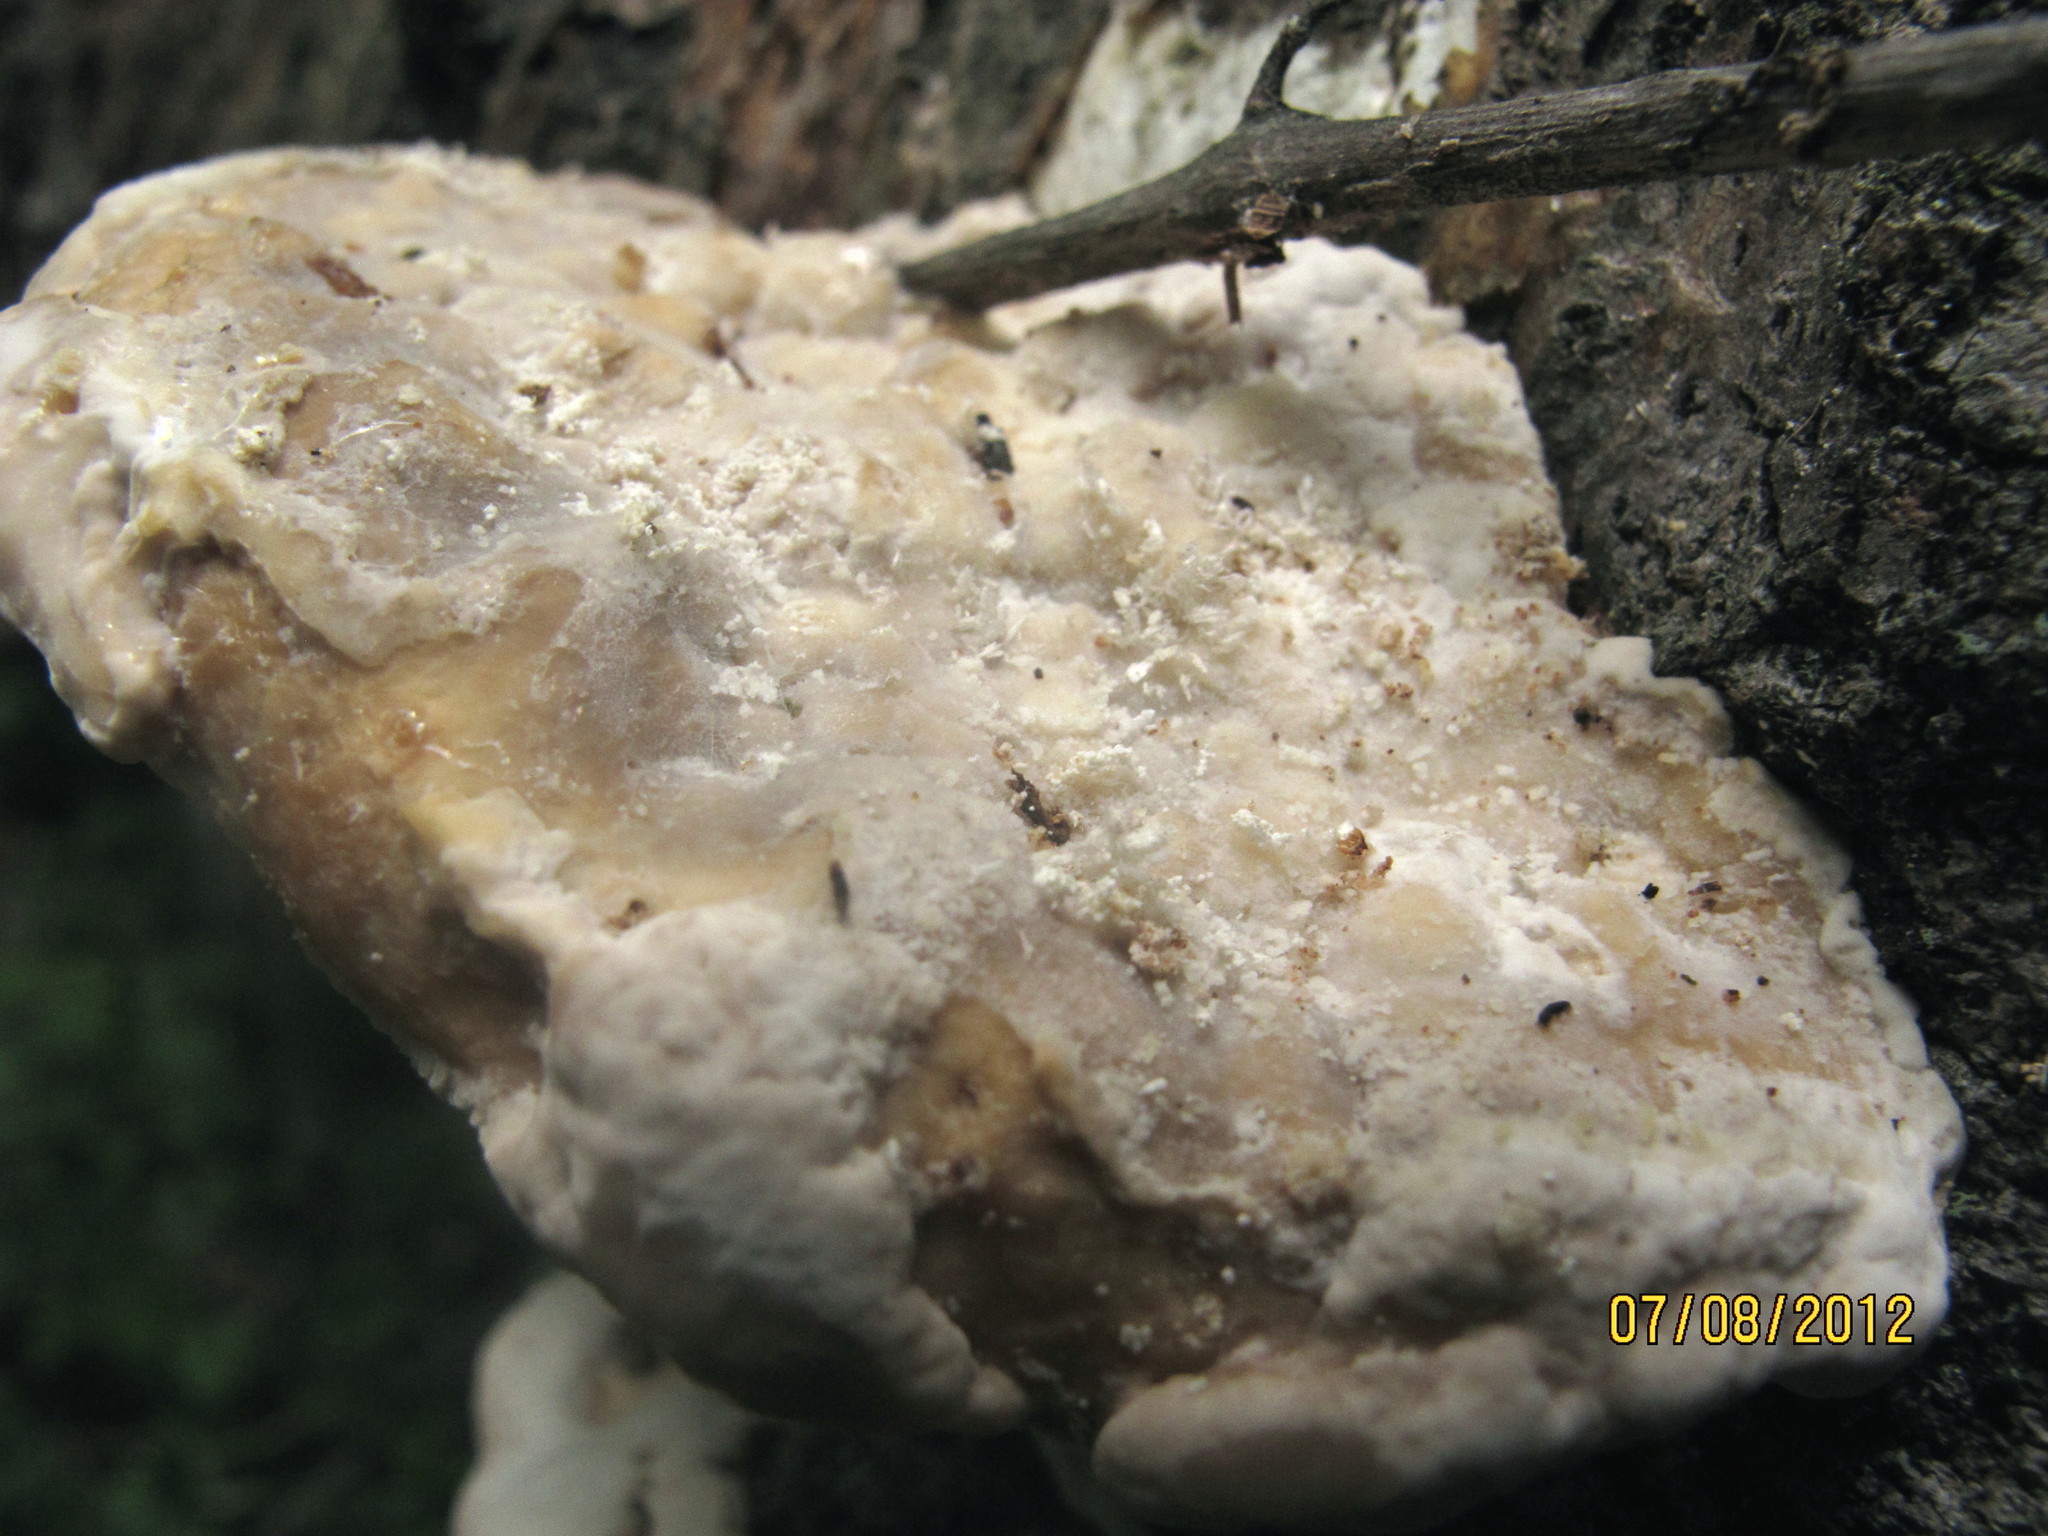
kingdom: Fungi
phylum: Basidiomycota
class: Agaricomycetes
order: Polyporales
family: Polyporaceae
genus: Trametes
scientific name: Trametes gibbosa
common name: Lumpy bracket
